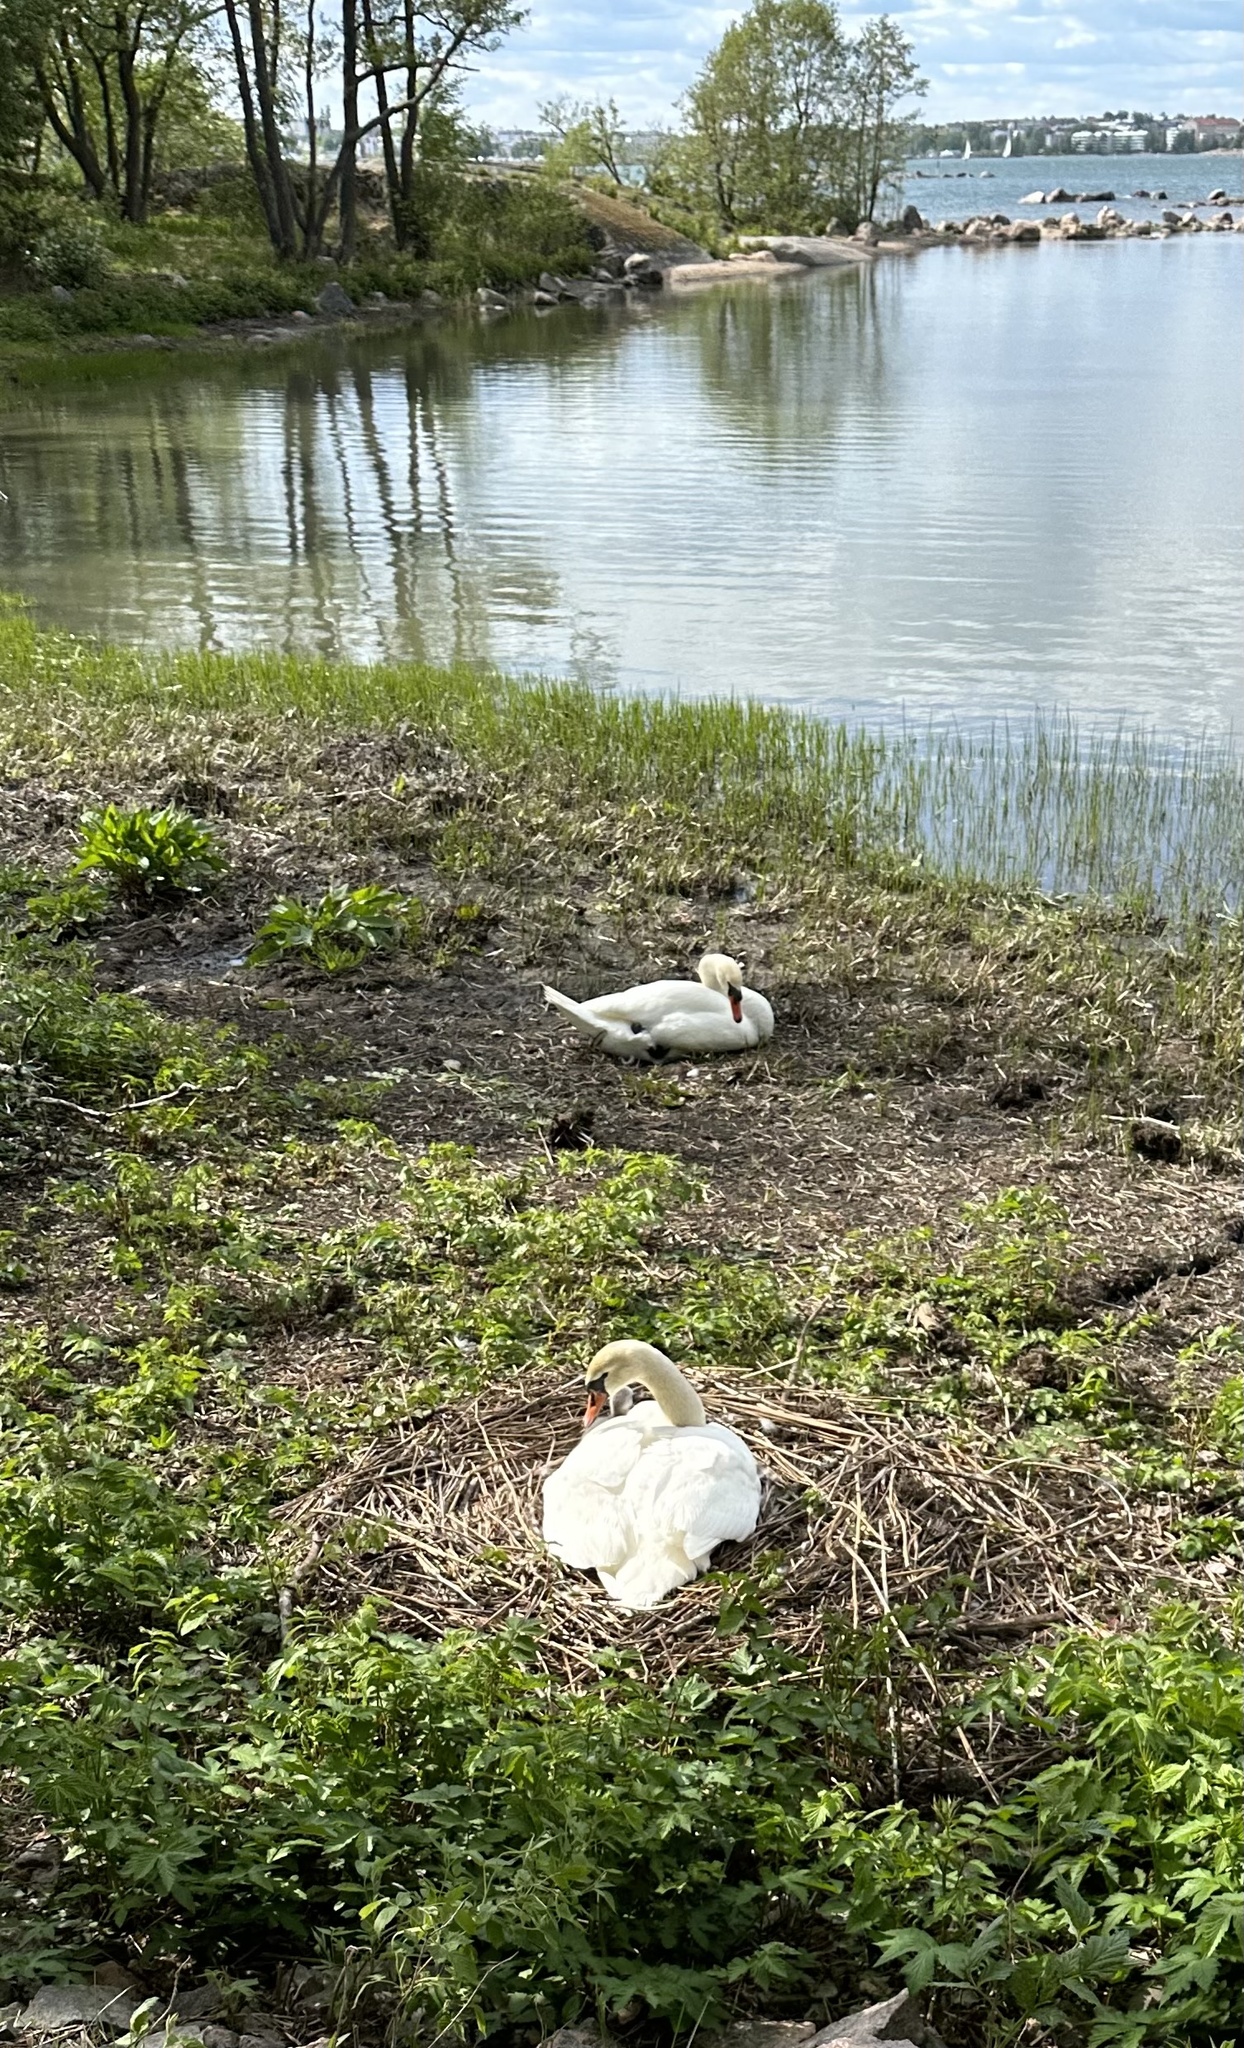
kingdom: Animalia
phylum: Chordata
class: Aves
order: Anseriformes
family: Anatidae
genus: Cygnus
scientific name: Cygnus olor
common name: Mute swan
